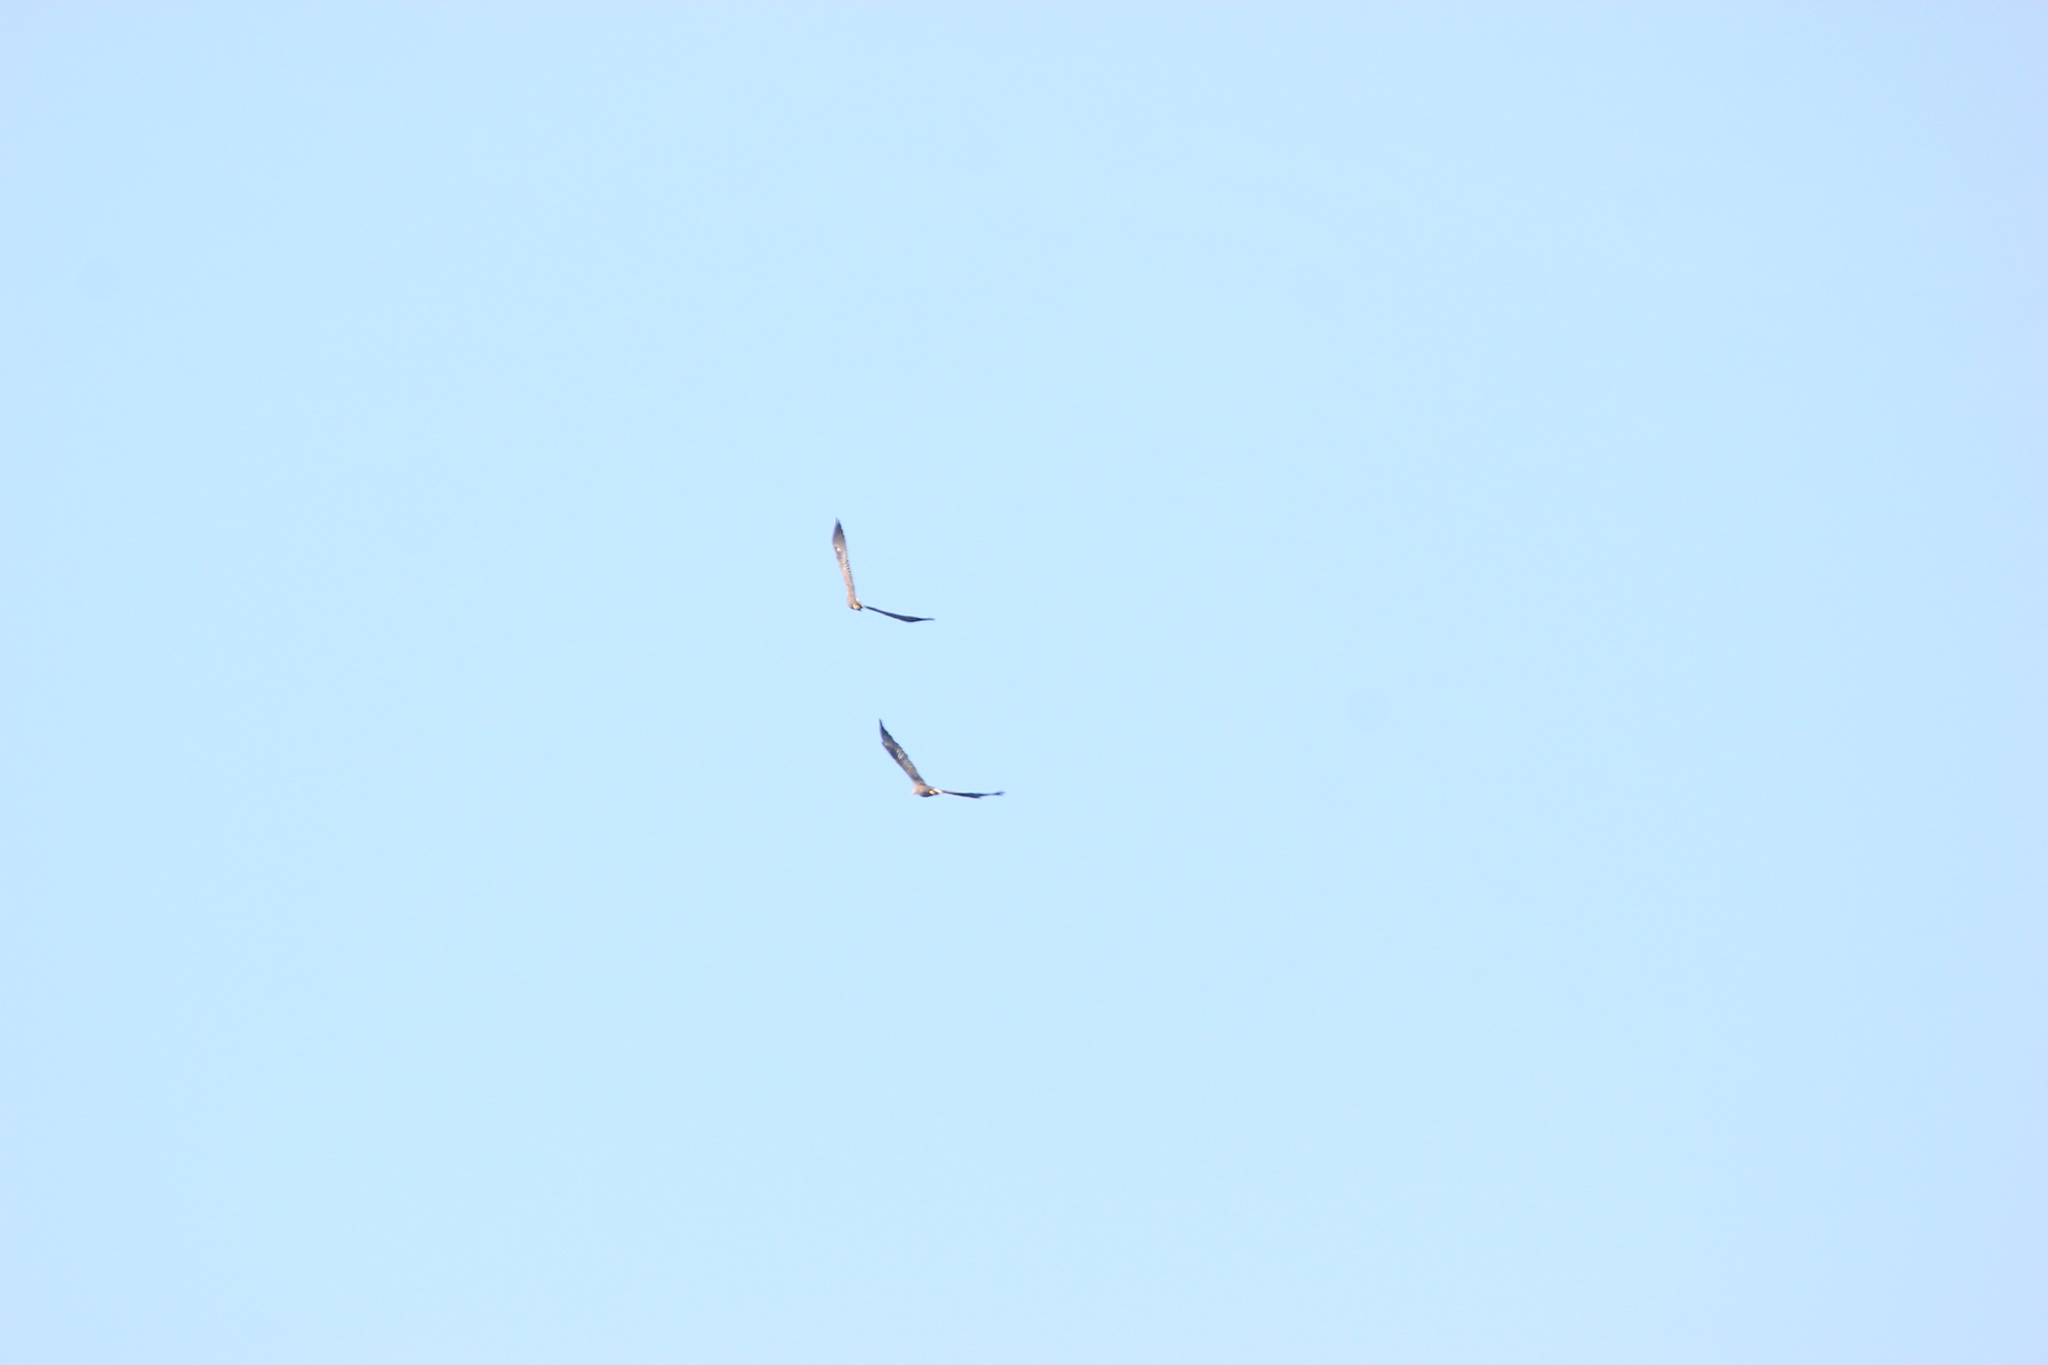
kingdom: Animalia
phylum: Chordata
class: Aves
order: Accipitriformes
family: Accipitridae
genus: Haliaeetus
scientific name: Haliaeetus albicilla
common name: White-tailed eagle
